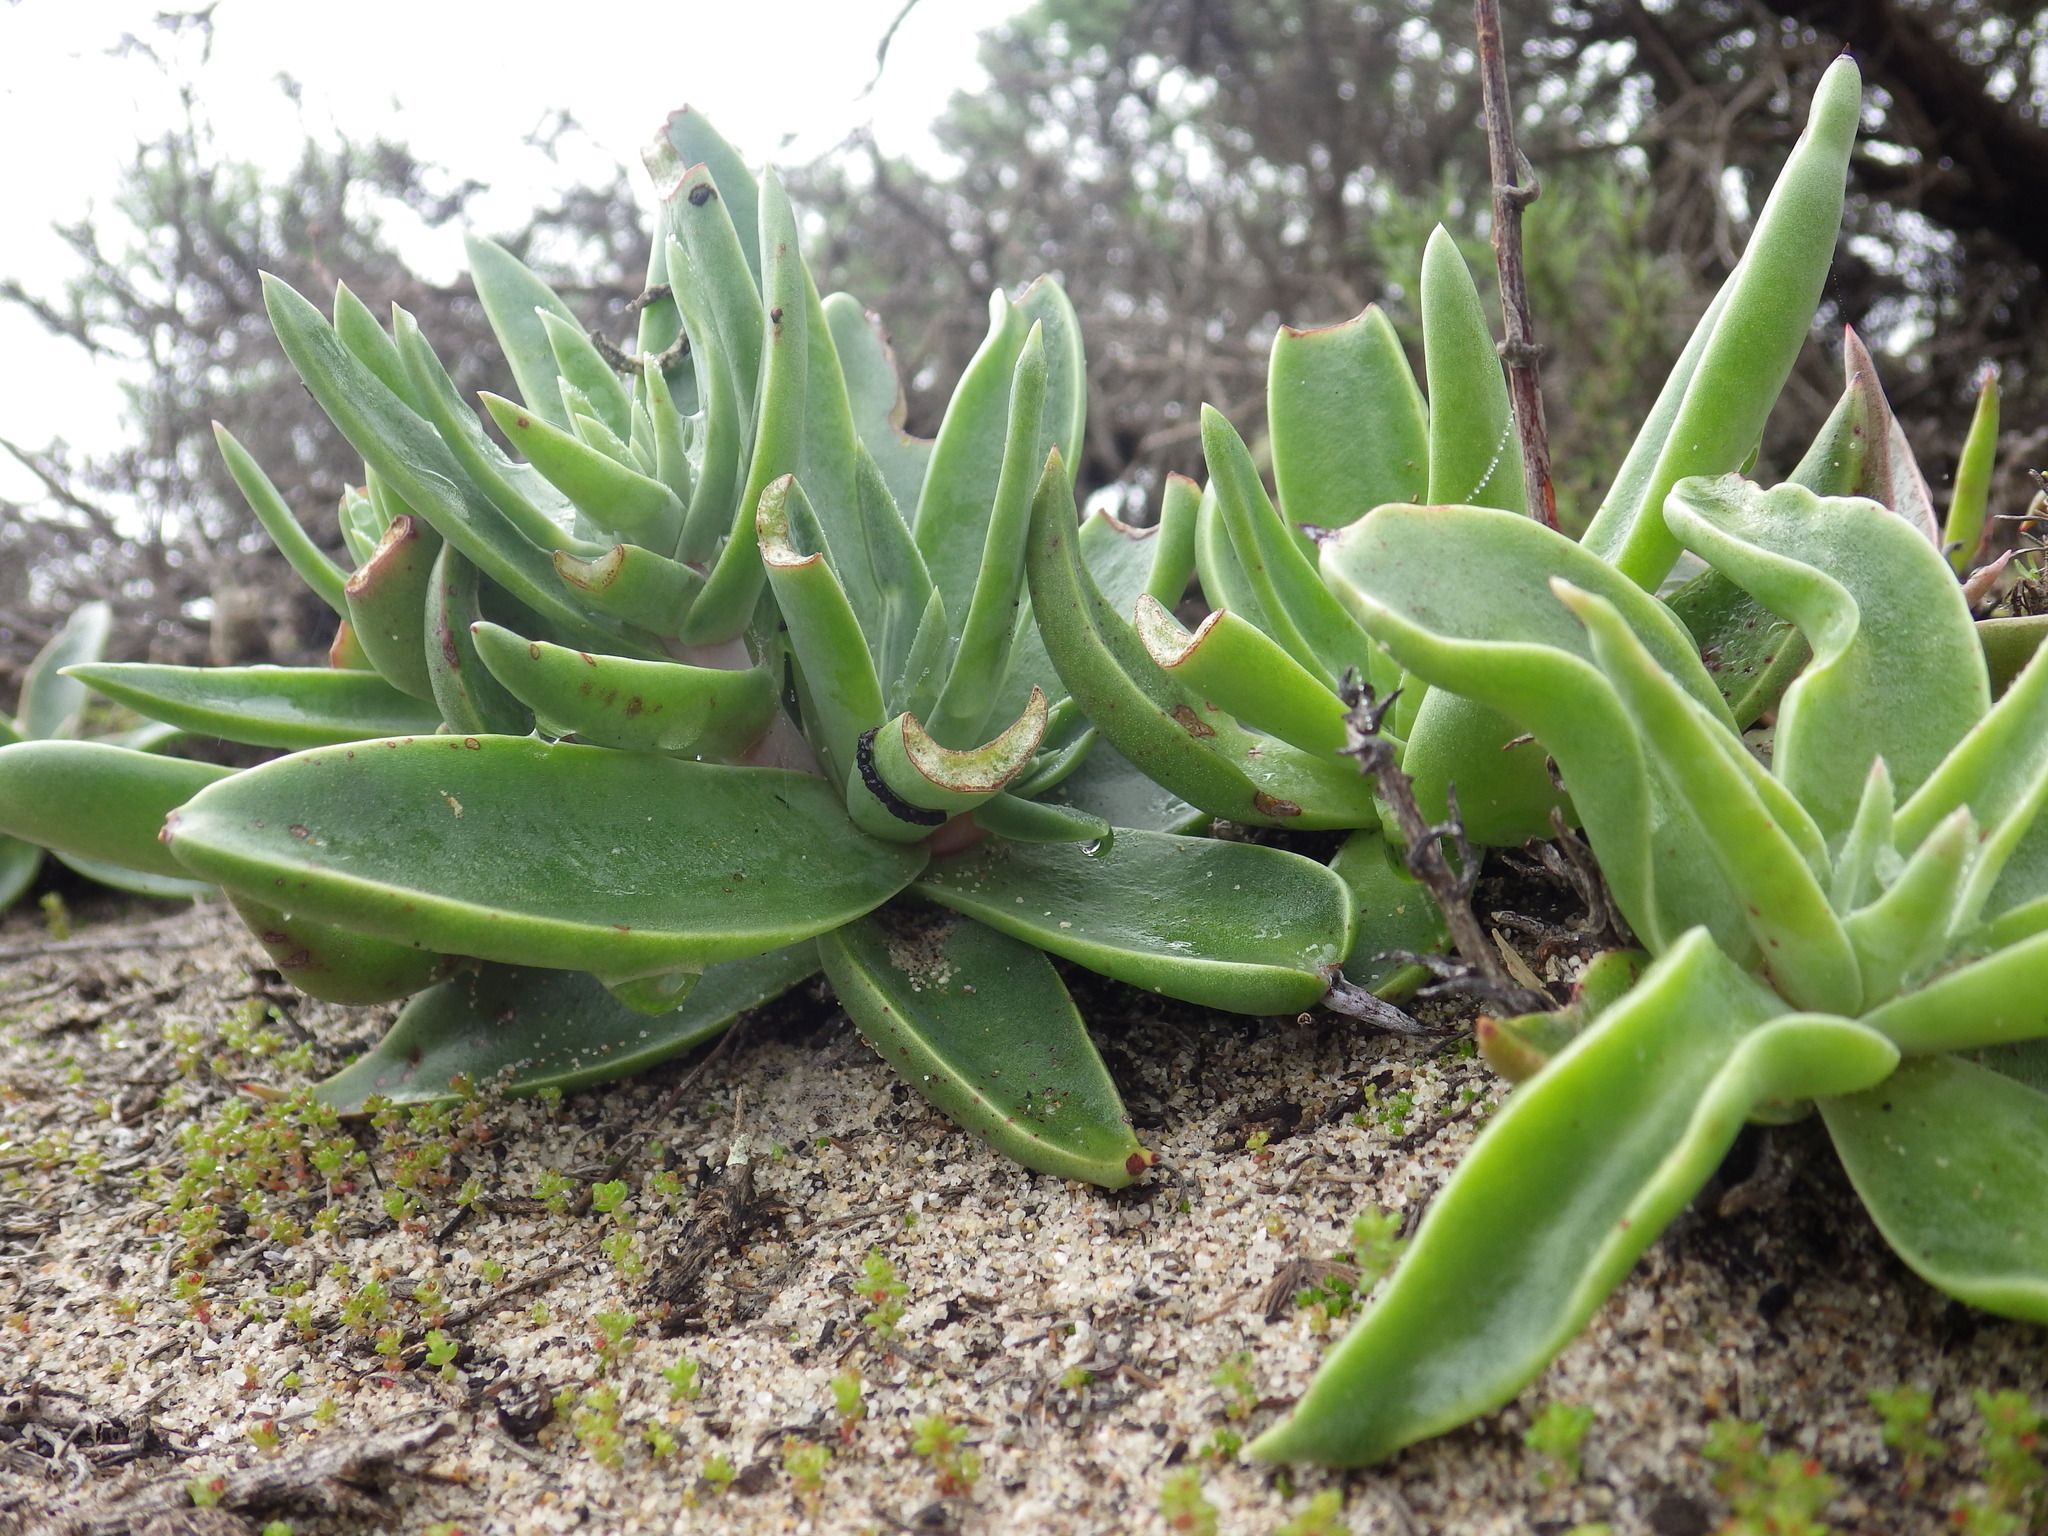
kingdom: Plantae
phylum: Tracheophyta
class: Magnoliopsida
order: Saxifragales
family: Crassulaceae
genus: Dudleya
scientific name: Dudleya lanceolata
